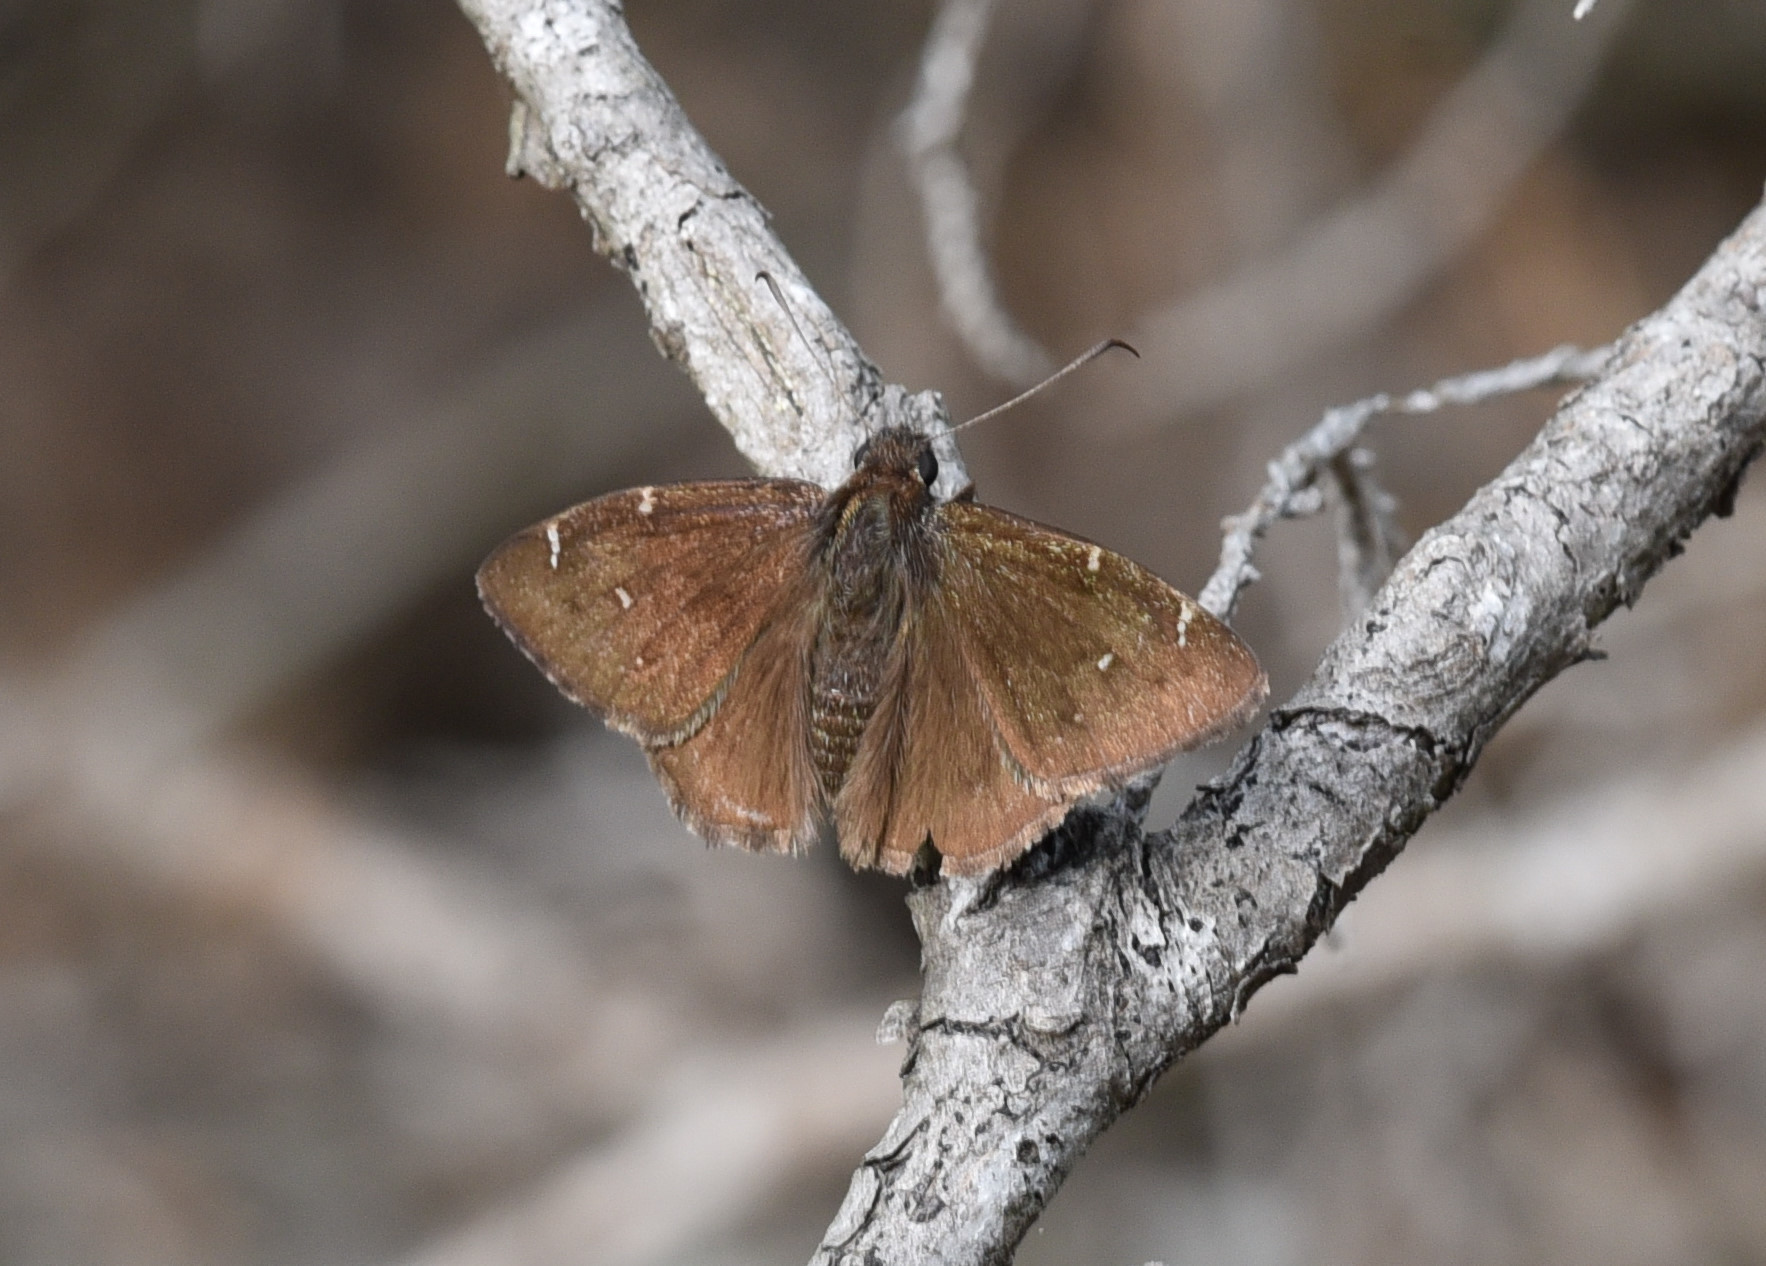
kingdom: Animalia
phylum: Arthropoda
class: Insecta
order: Lepidoptera
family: Hesperiidae
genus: Thorybes
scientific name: Thorybes pylades
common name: Northern cloudywing
